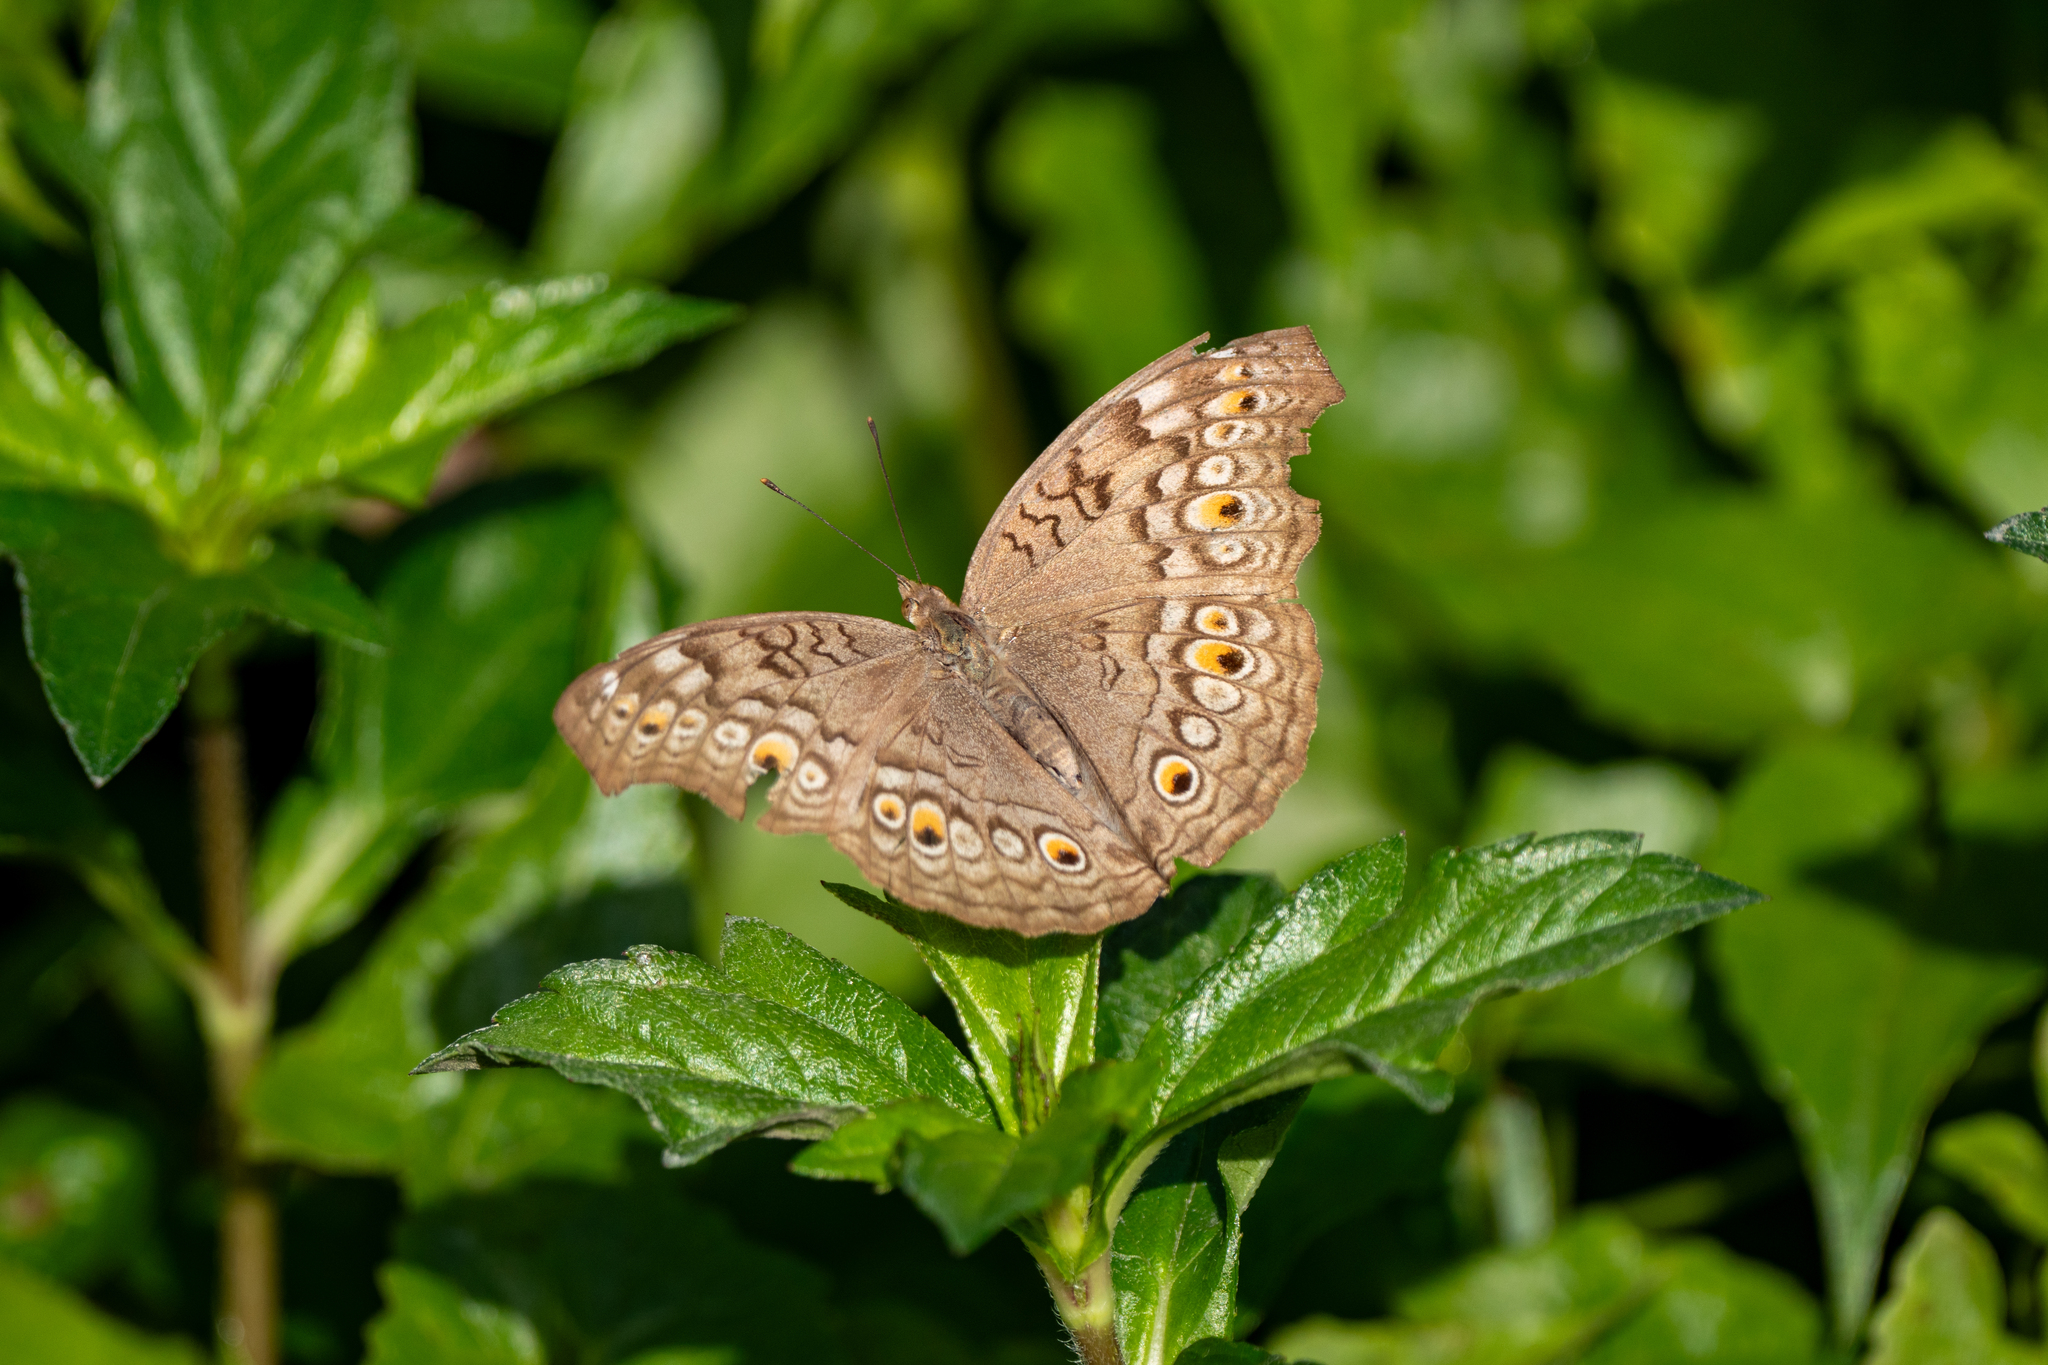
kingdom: Animalia
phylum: Arthropoda
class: Insecta
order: Lepidoptera
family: Nymphalidae
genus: Junonia
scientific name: Junonia atlites
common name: Grey pansy
